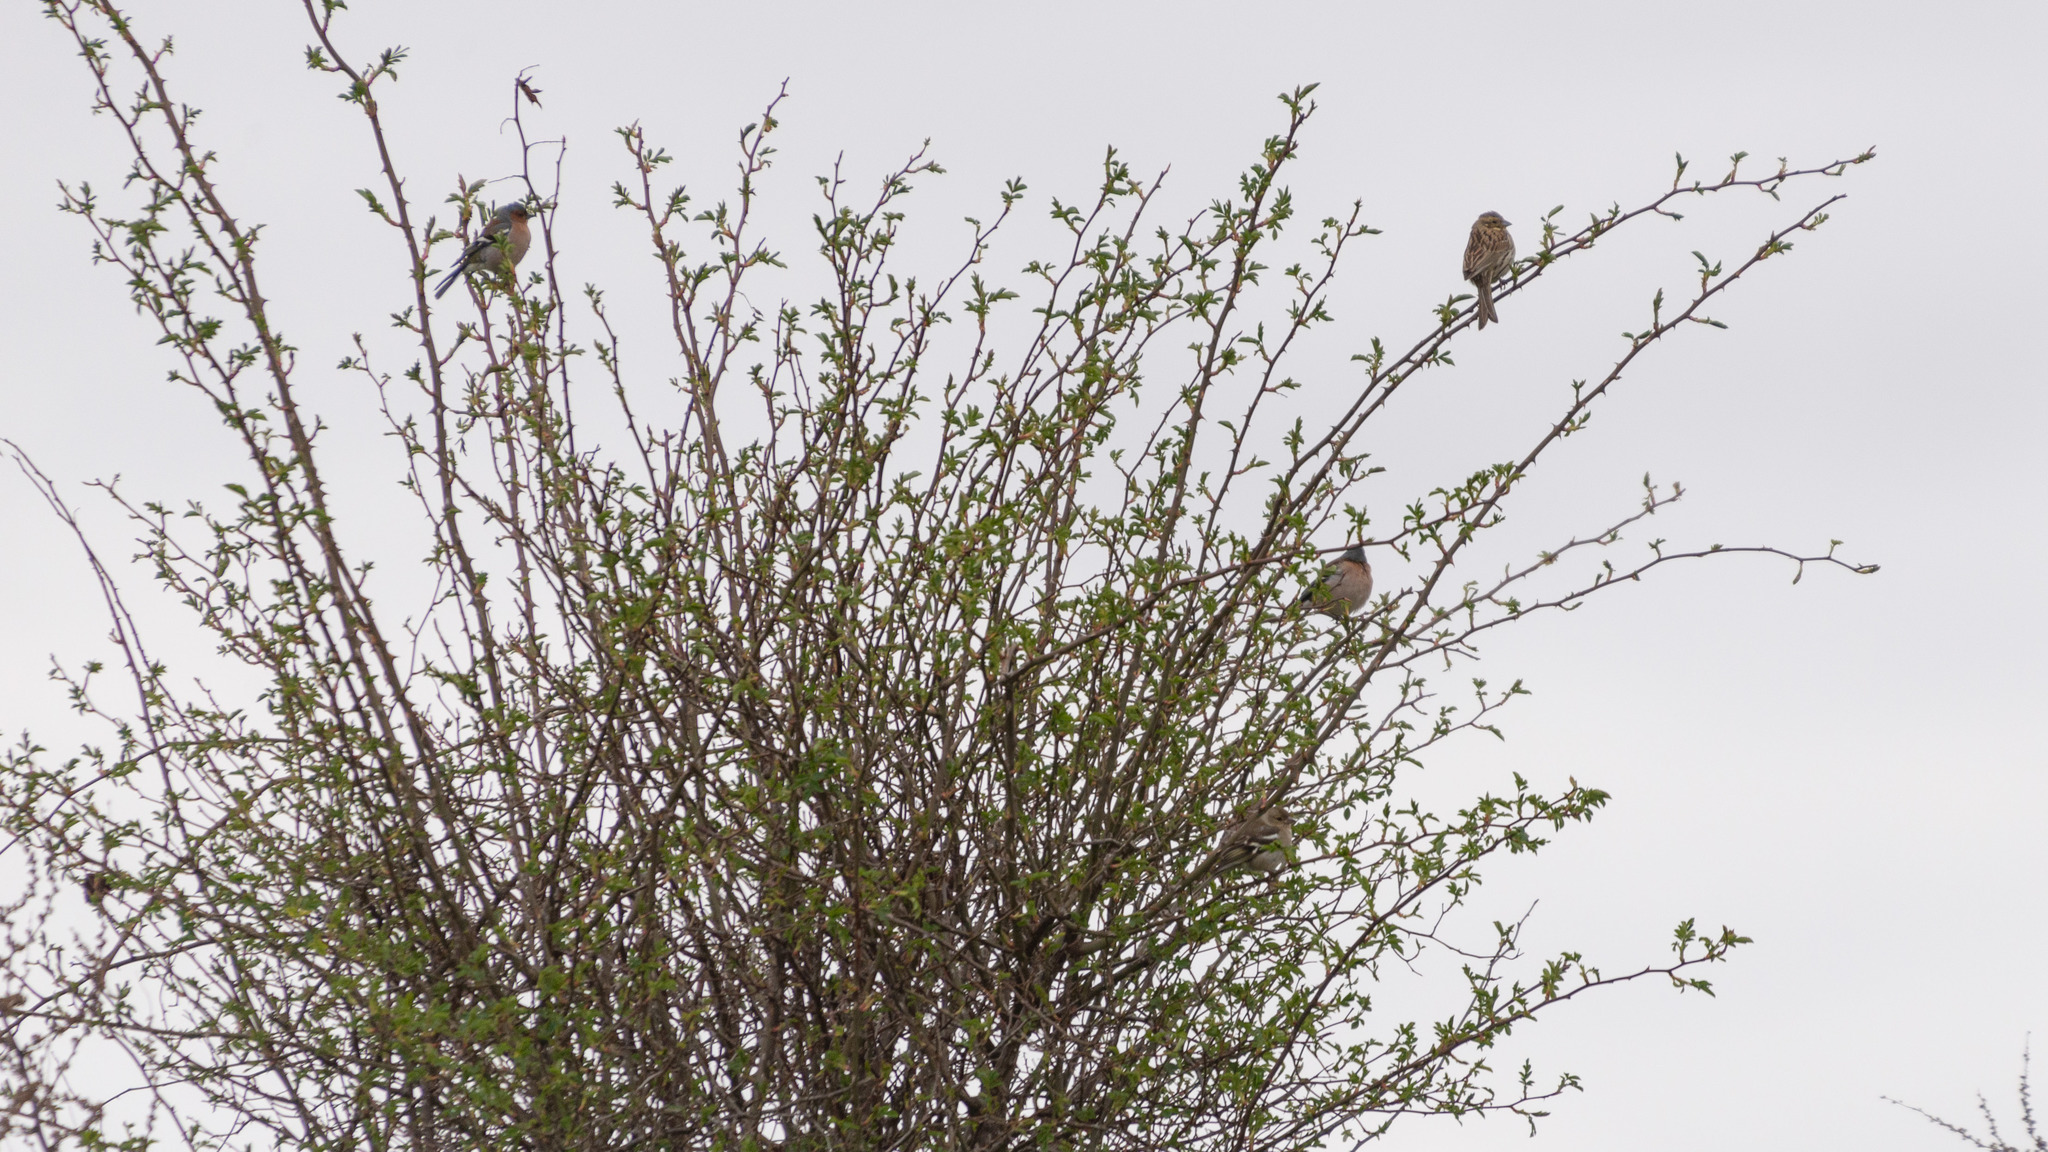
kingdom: Animalia
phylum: Chordata
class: Aves
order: Passeriformes
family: Fringillidae
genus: Fringilla
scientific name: Fringilla coelebs
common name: Common chaffinch
